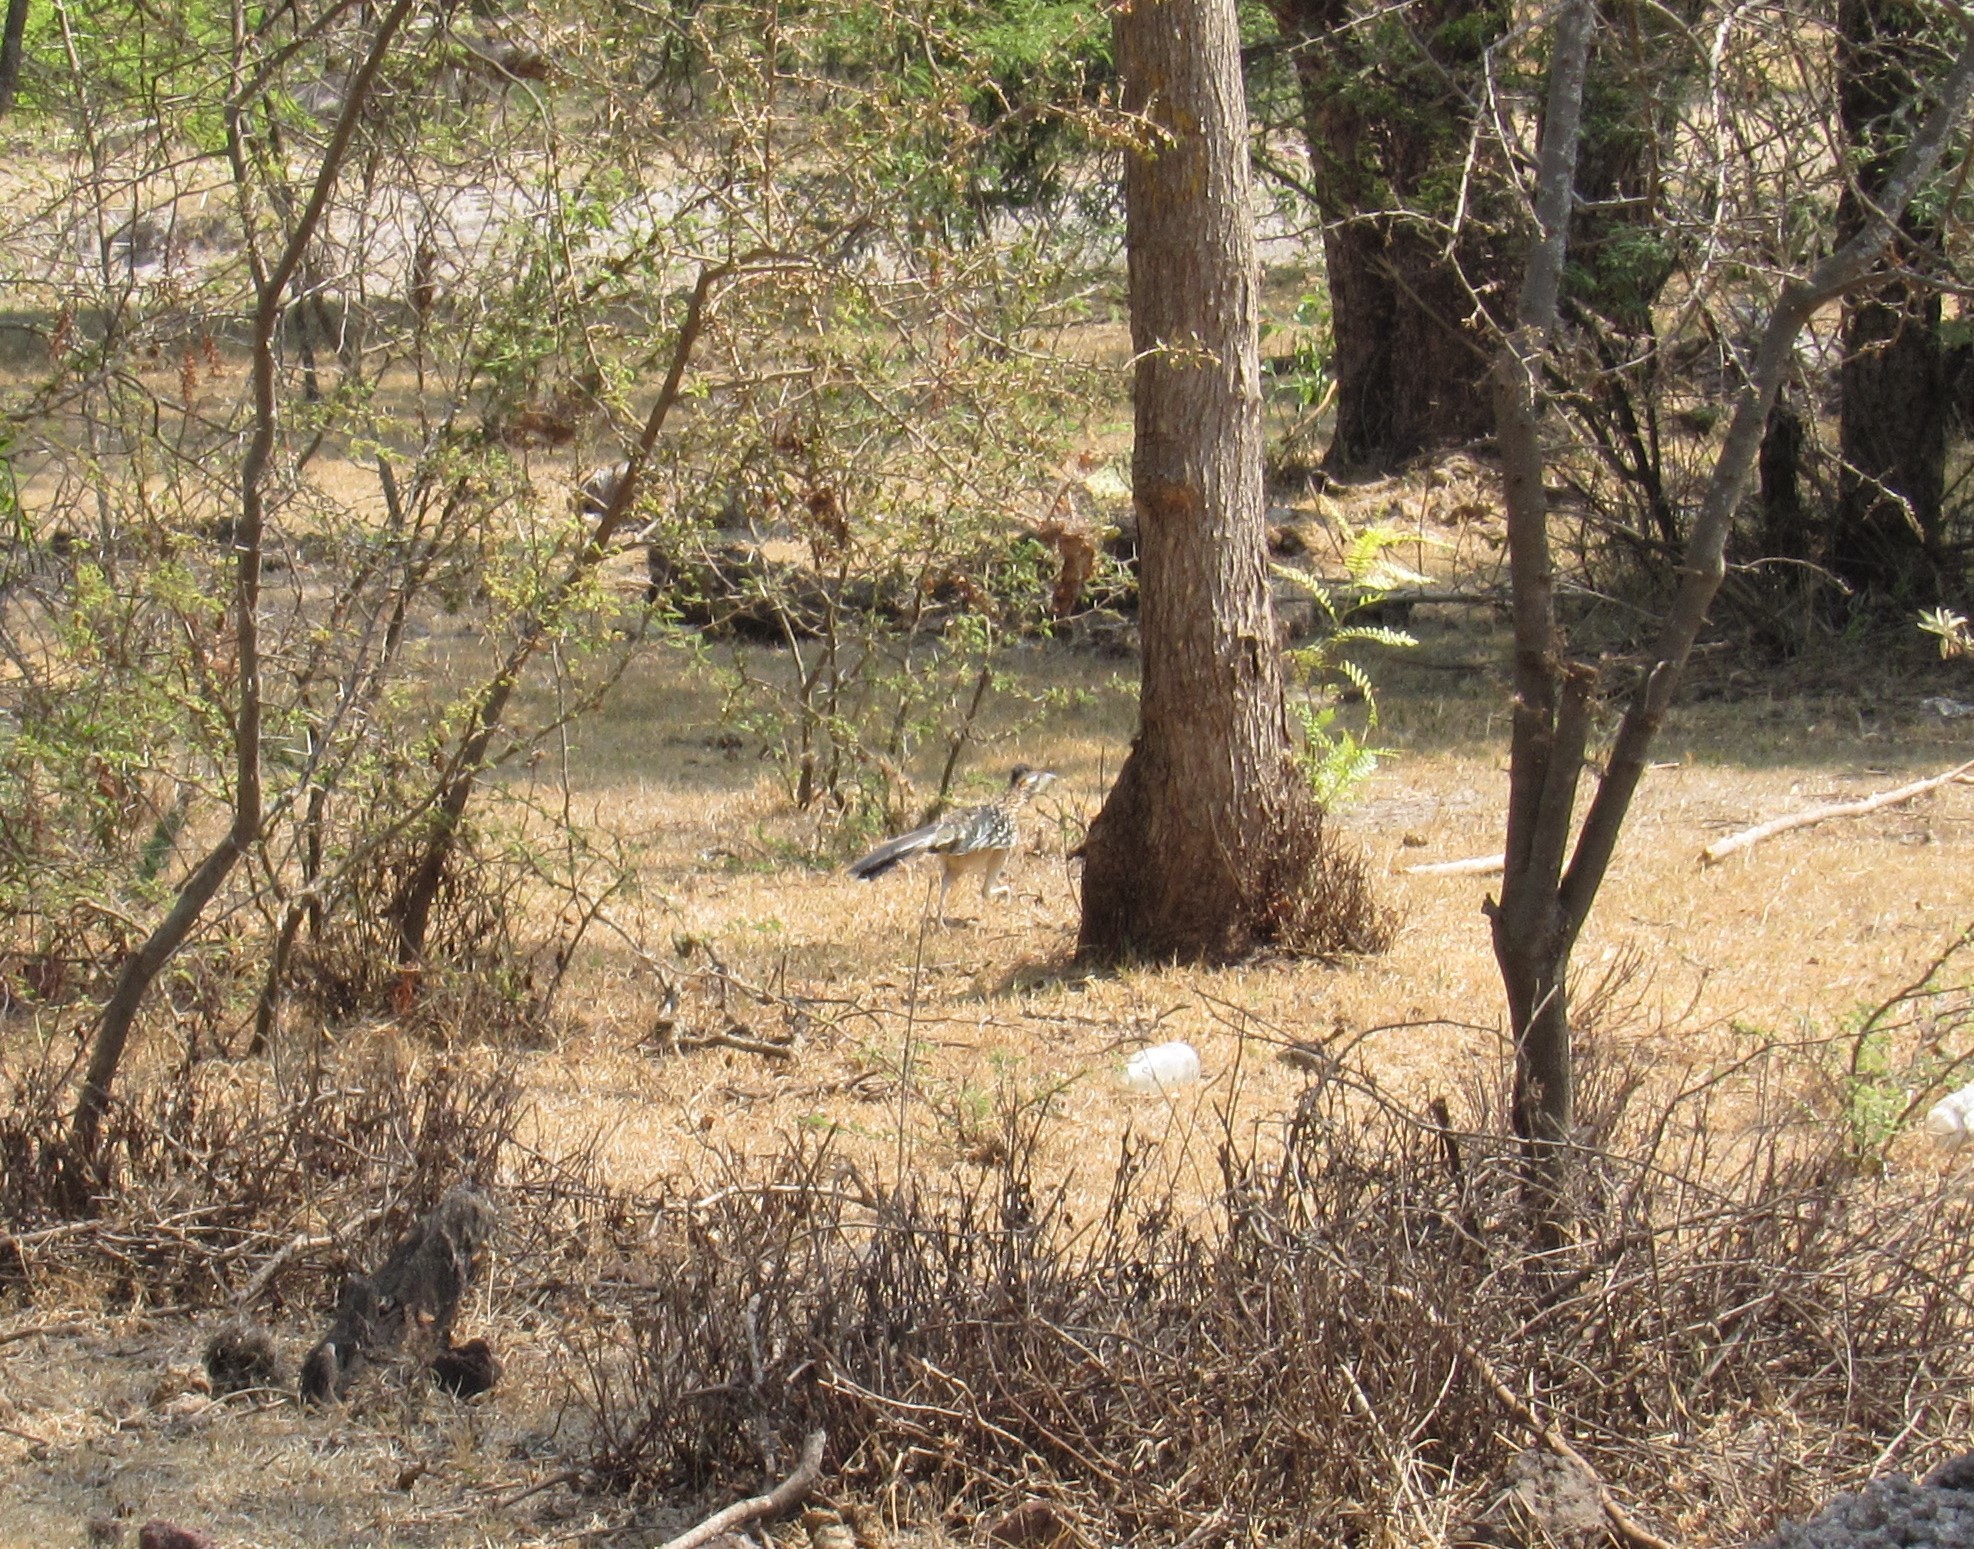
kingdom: Animalia
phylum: Chordata
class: Aves
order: Cuculiformes
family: Cuculidae
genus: Geococcyx
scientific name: Geococcyx californianus
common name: Greater roadrunner
